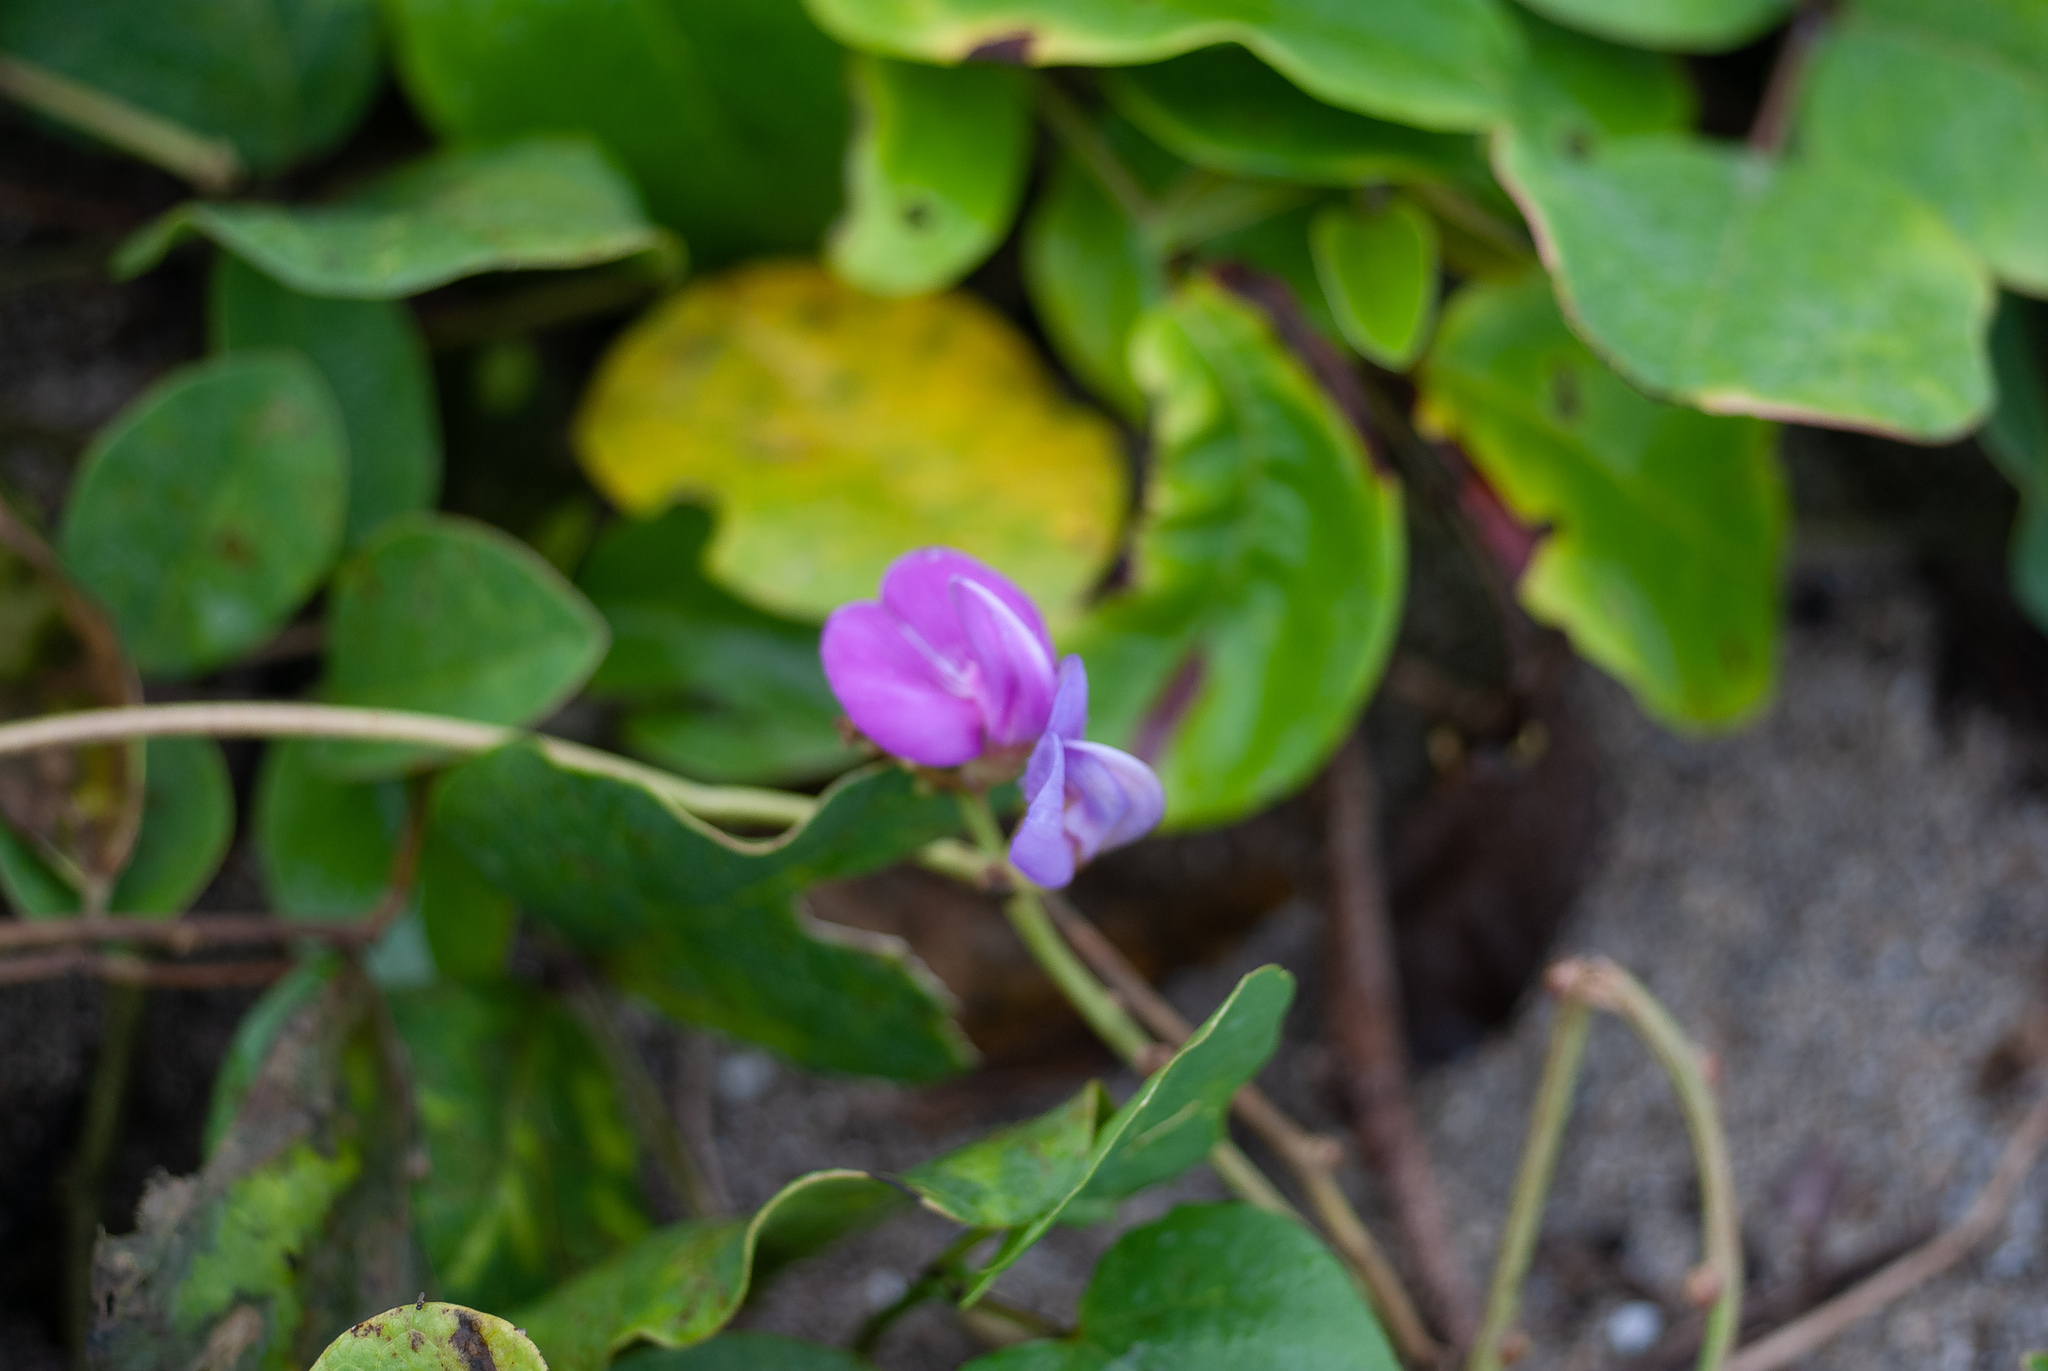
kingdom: Plantae
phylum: Tracheophyta
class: Magnoliopsida
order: Fabales
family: Fabaceae
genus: Canavalia
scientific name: Canavalia rosea
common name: Beach-bean
